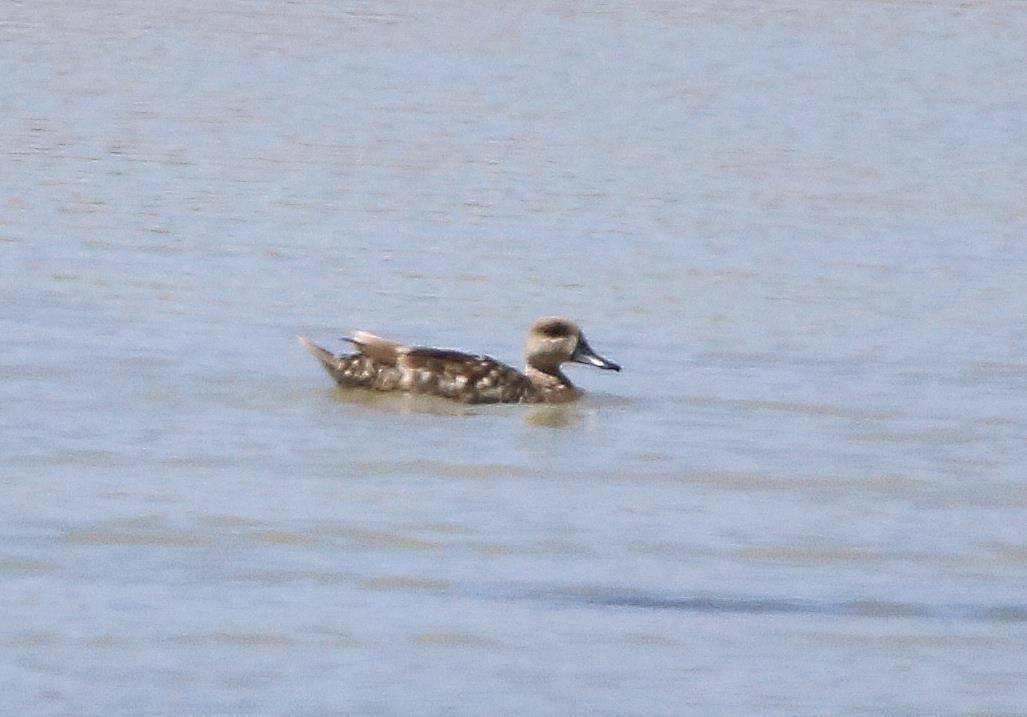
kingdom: Animalia
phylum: Chordata
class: Aves
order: Anseriformes
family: Anatidae
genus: Marmaronetta
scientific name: Marmaronetta angustirostris
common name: Marbled duck
